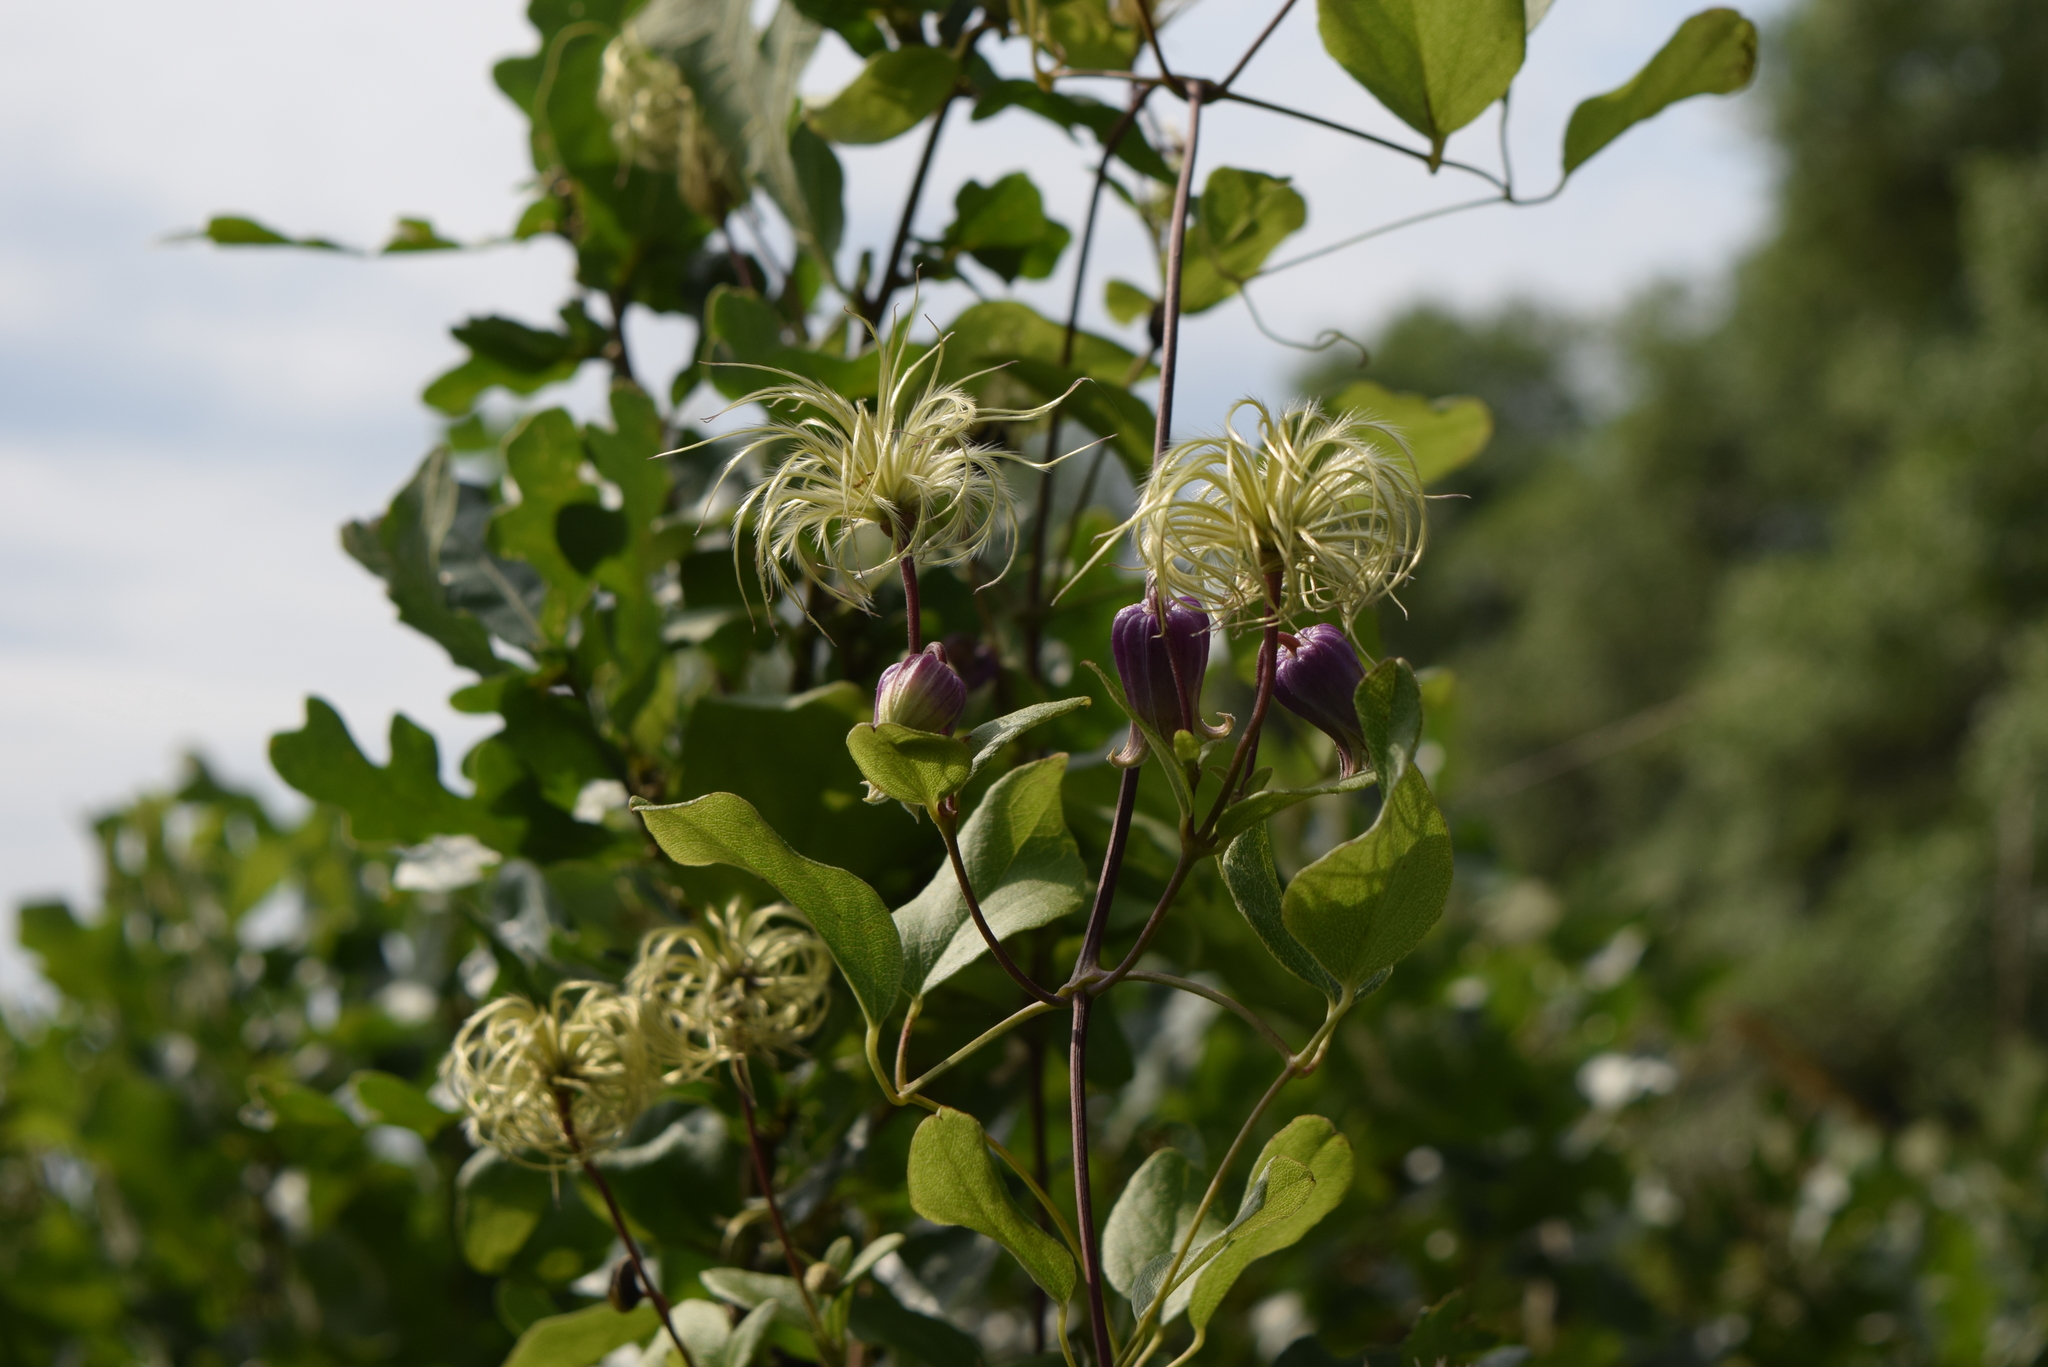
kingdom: Plantae
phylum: Tracheophyta
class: Magnoliopsida
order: Ranunculales
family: Ranunculaceae
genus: Clematis
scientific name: Clematis reticulata
